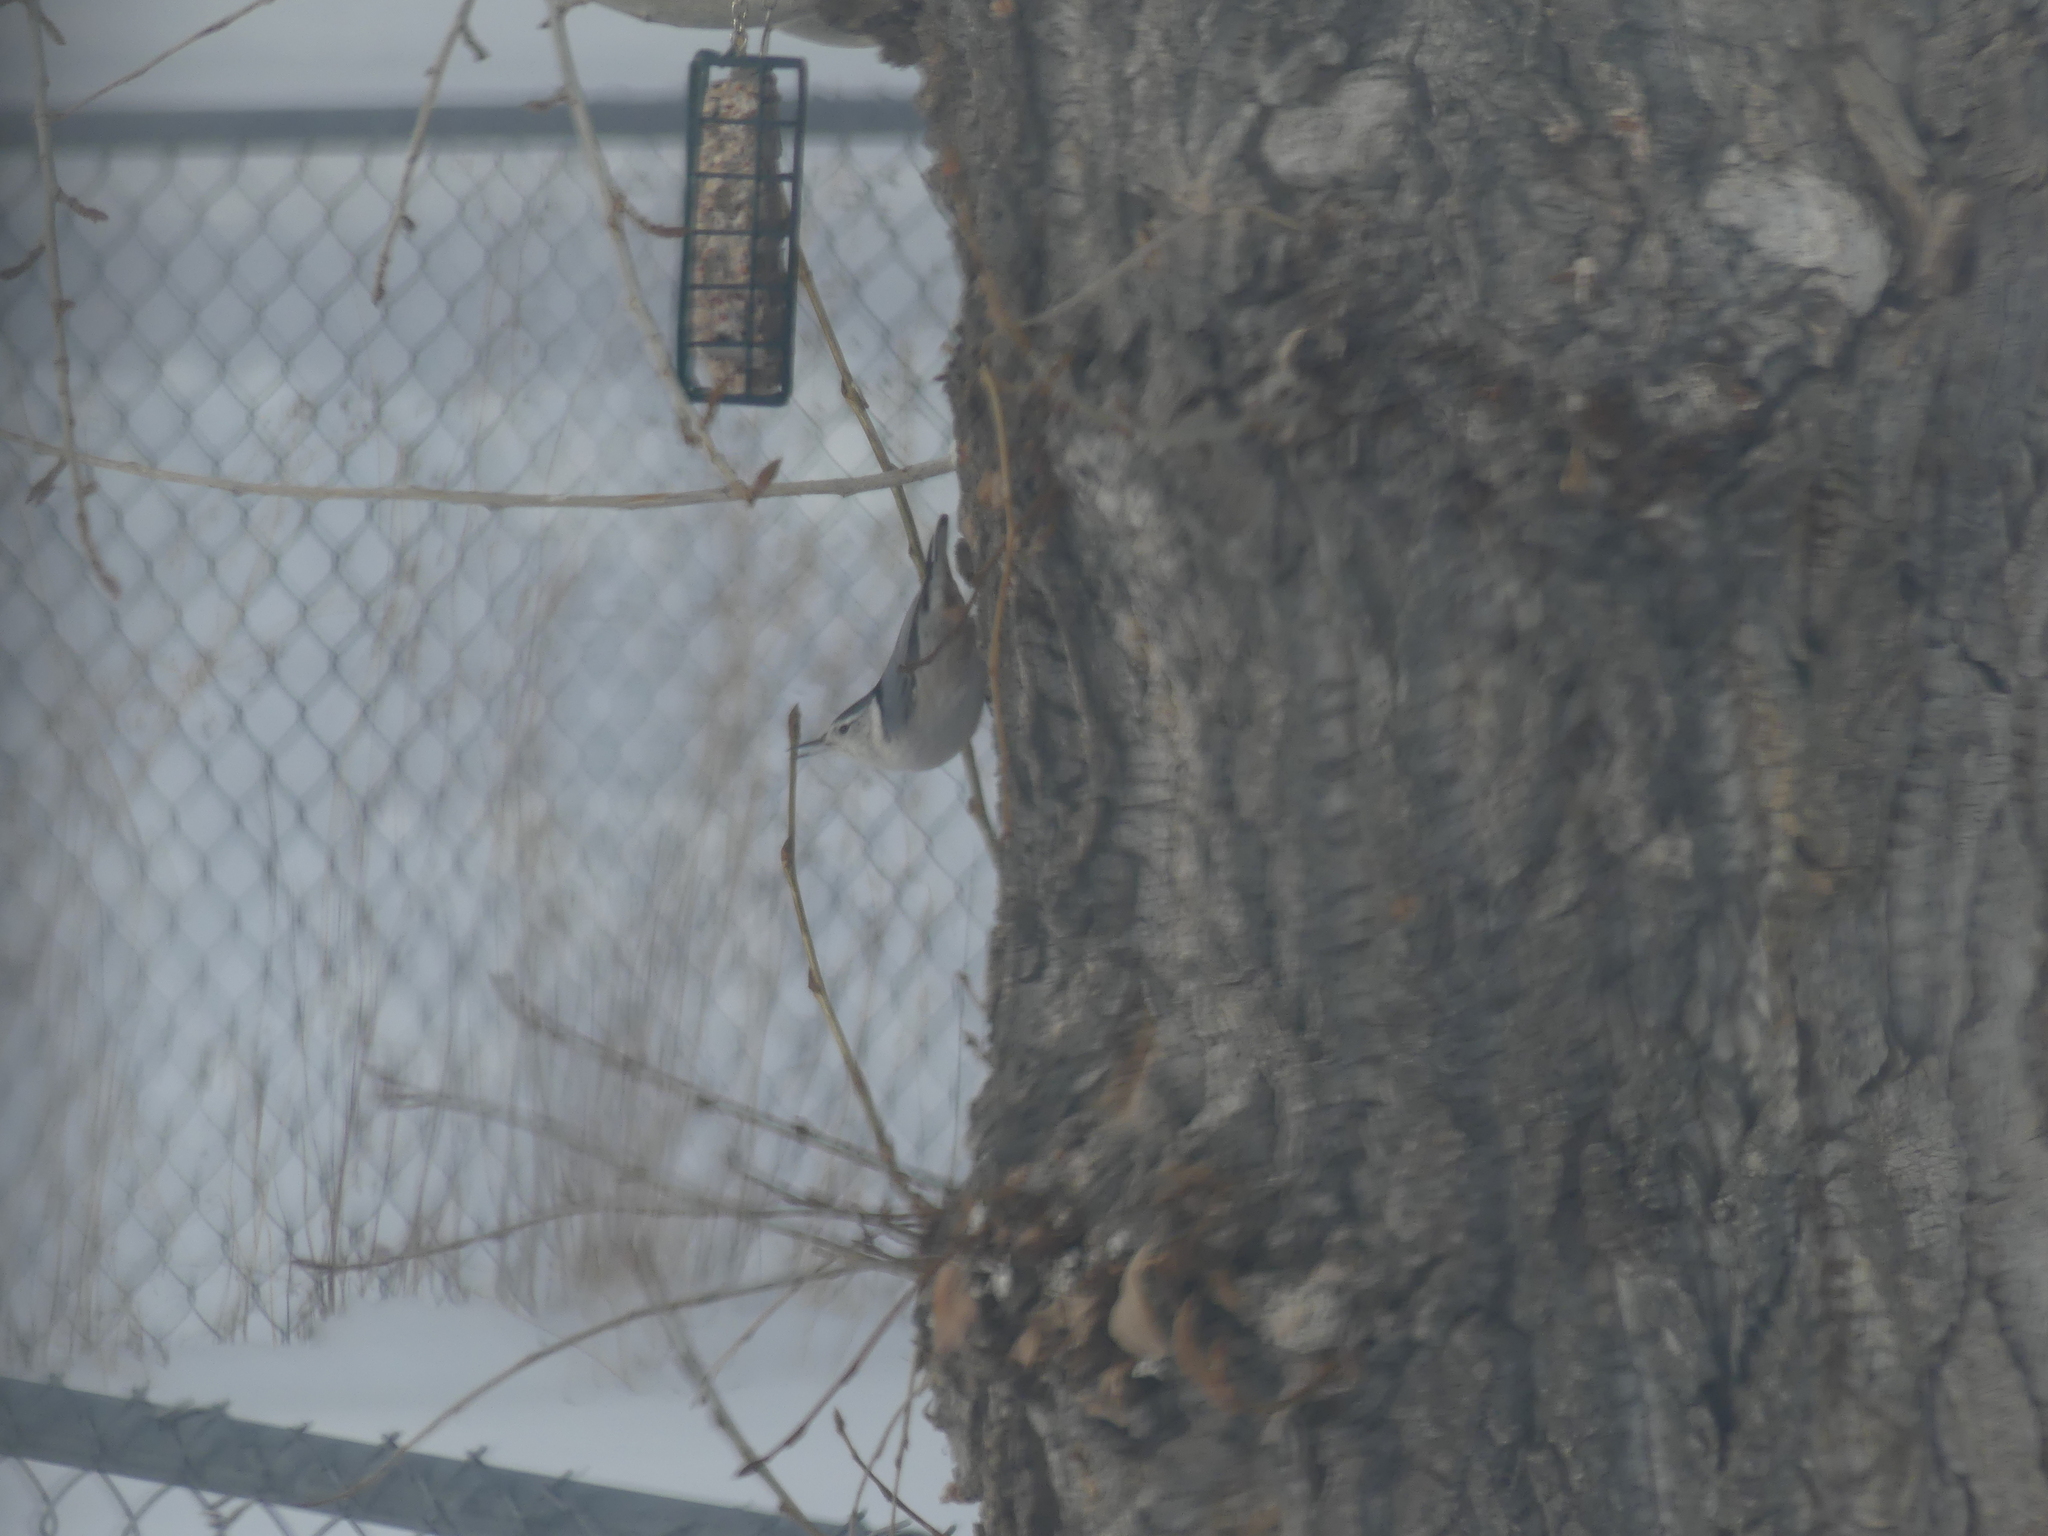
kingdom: Animalia
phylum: Chordata
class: Aves
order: Passeriformes
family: Sittidae
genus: Sitta
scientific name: Sitta carolinensis
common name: White-breasted nuthatch
